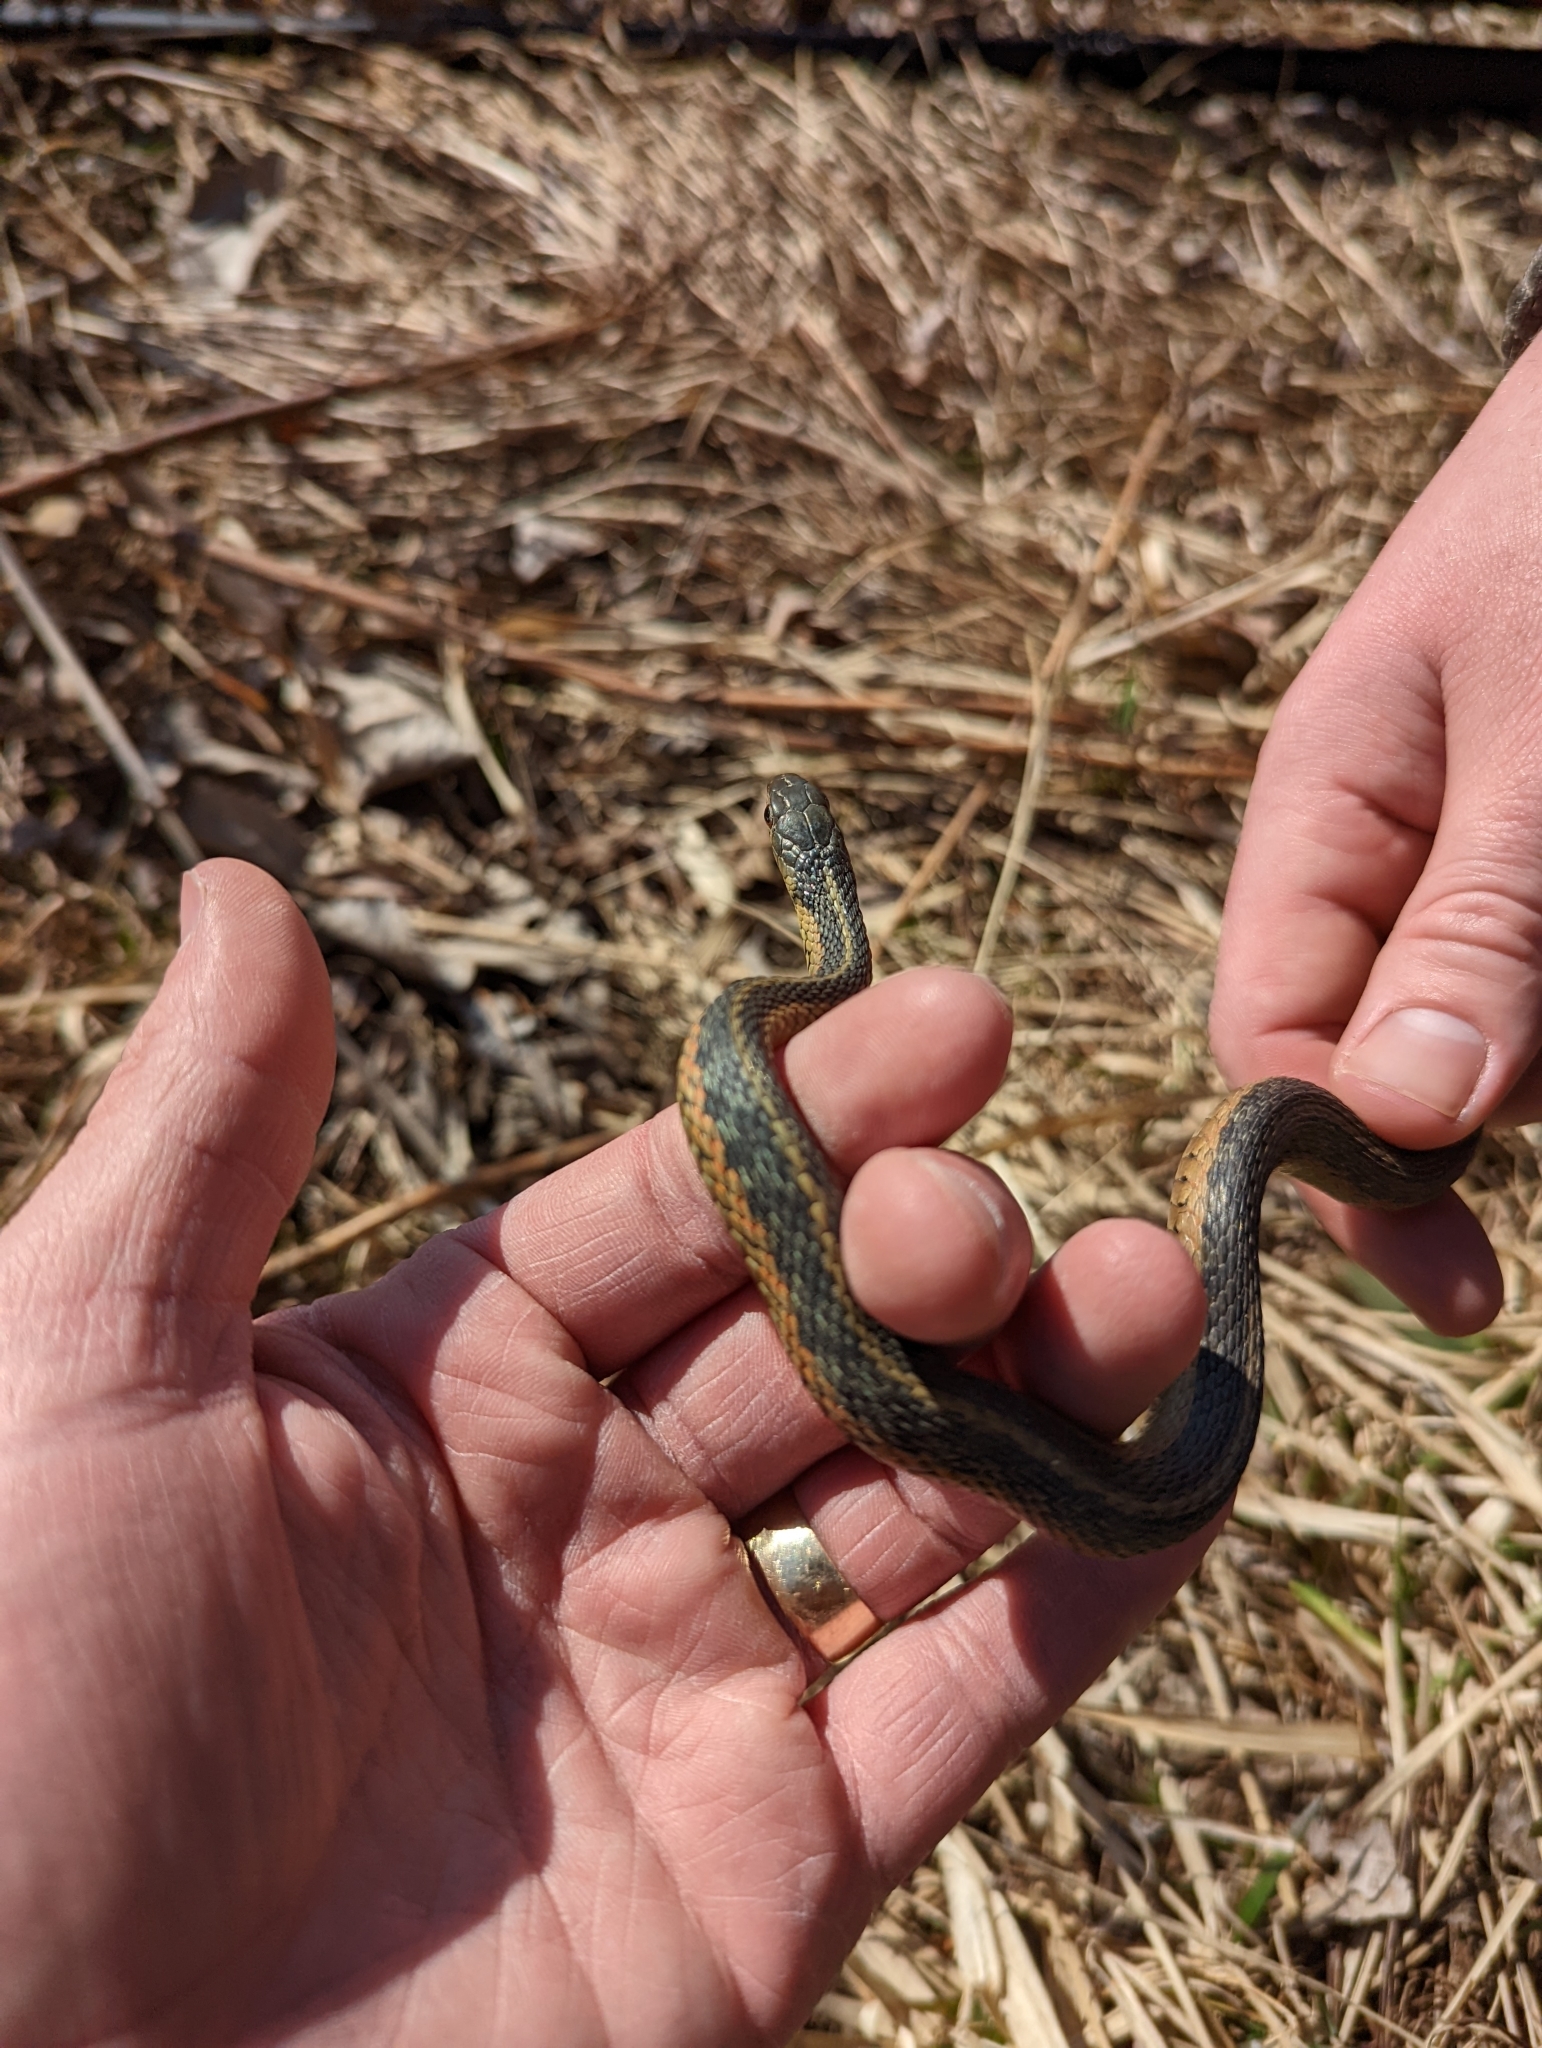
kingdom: Animalia
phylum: Chordata
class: Squamata
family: Colubridae
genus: Thamnophis
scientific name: Thamnophis sirtalis
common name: Common garter snake
